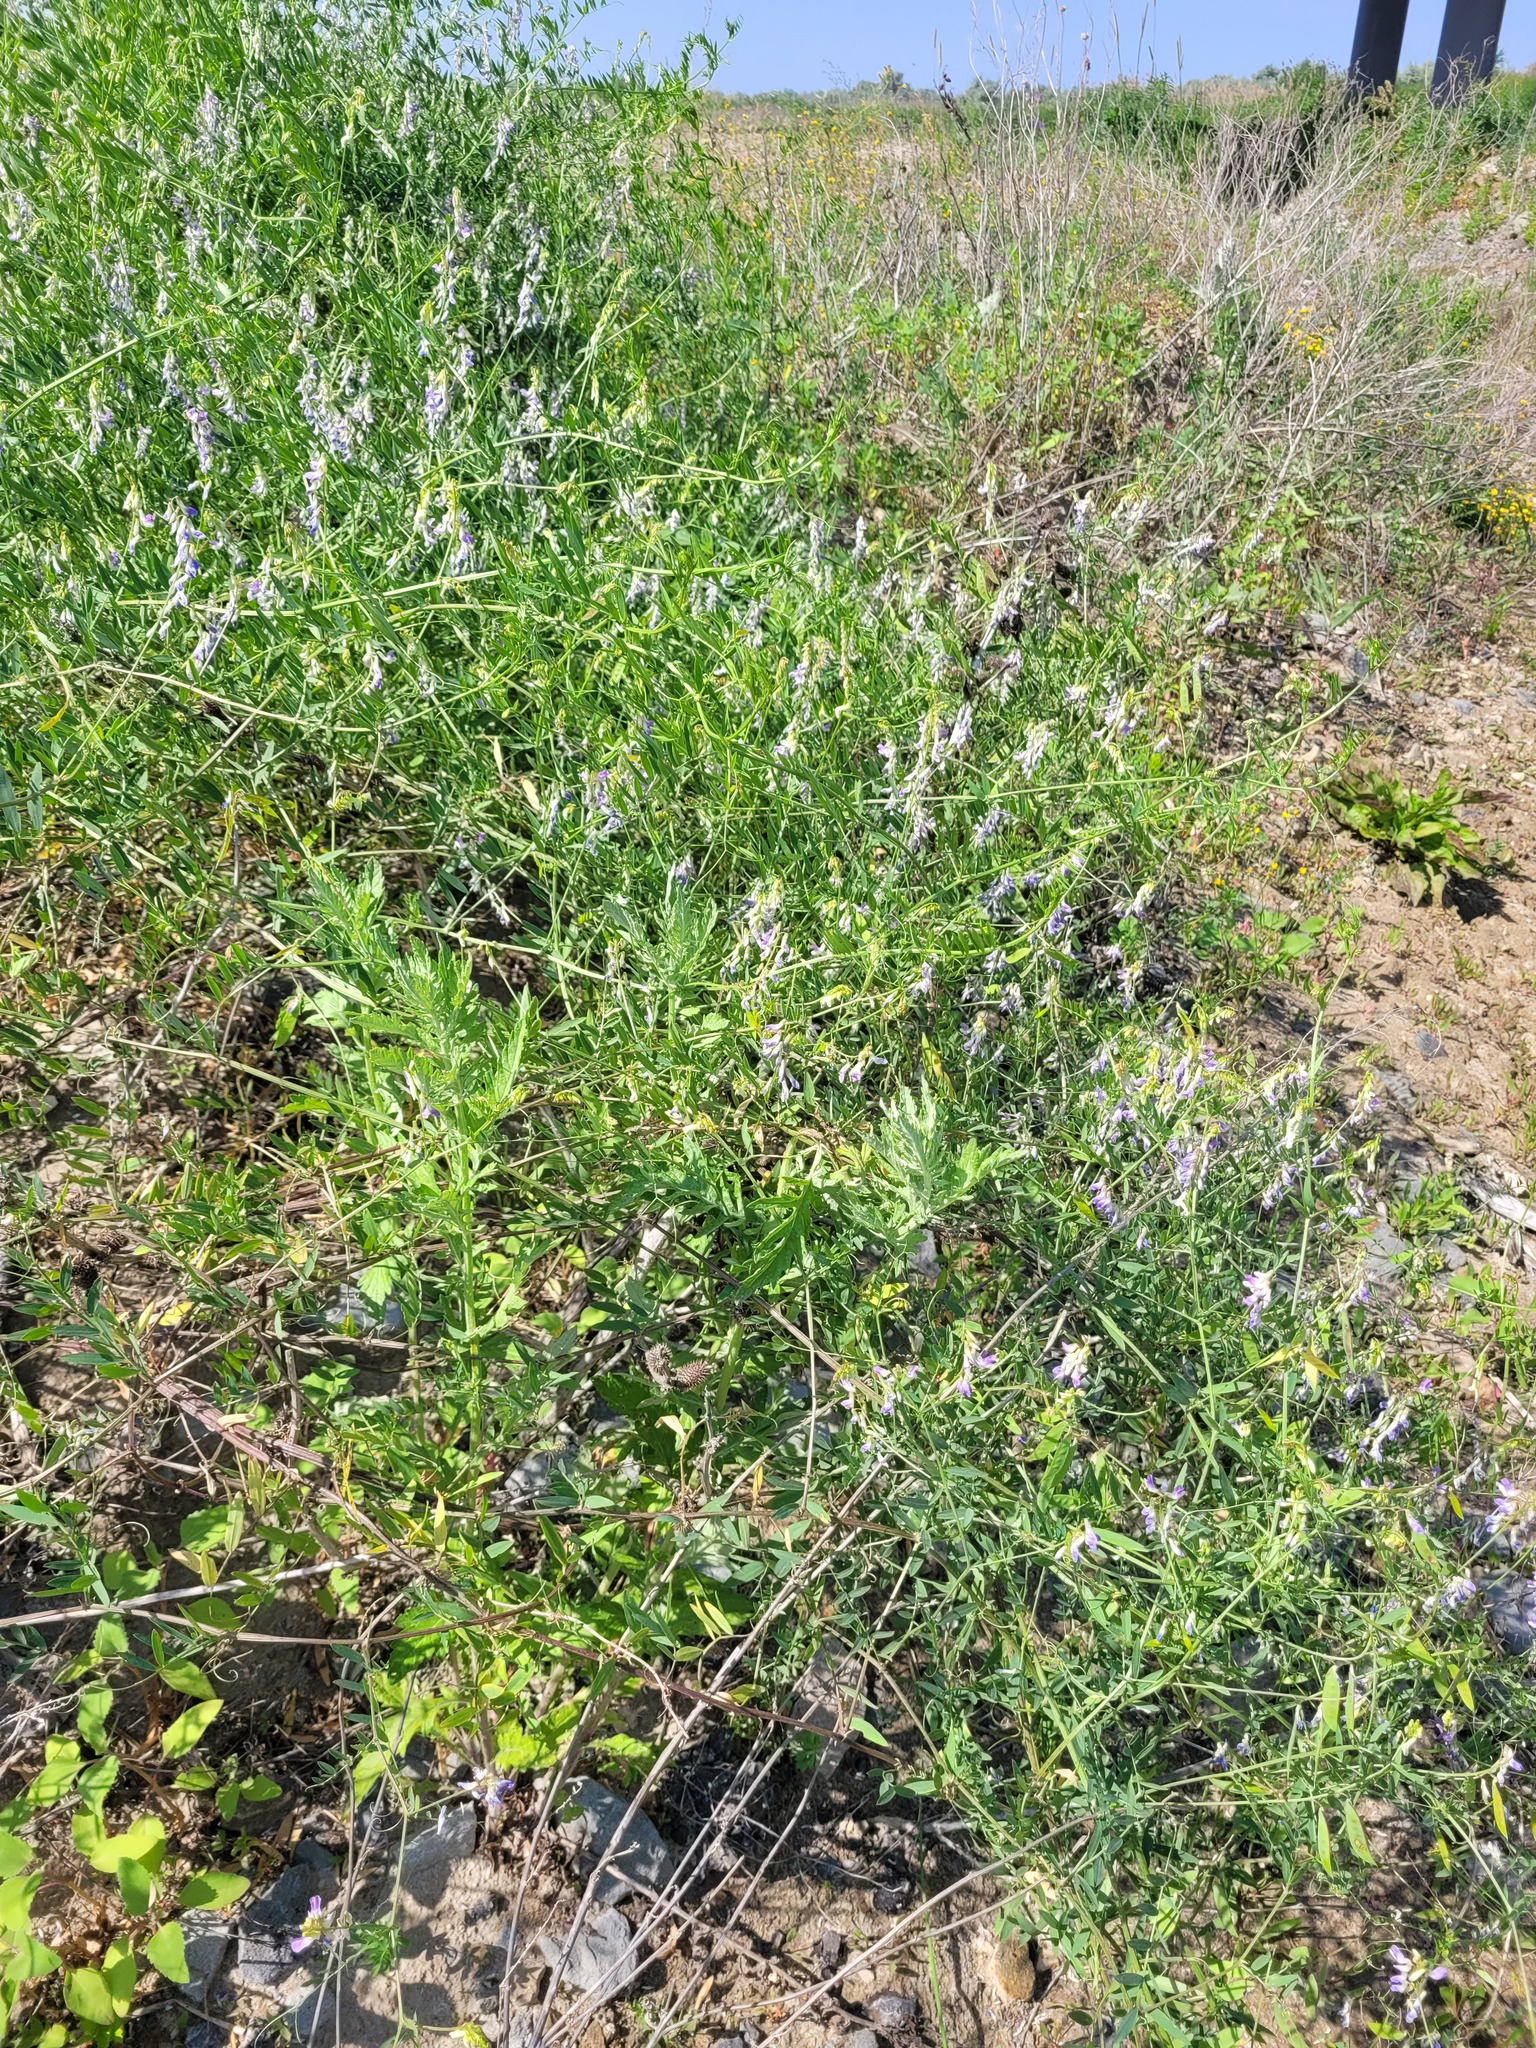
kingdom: Plantae
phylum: Tracheophyta
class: Magnoliopsida
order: Fabales
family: Fabaceae
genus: Vicia
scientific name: Vicia biennis
